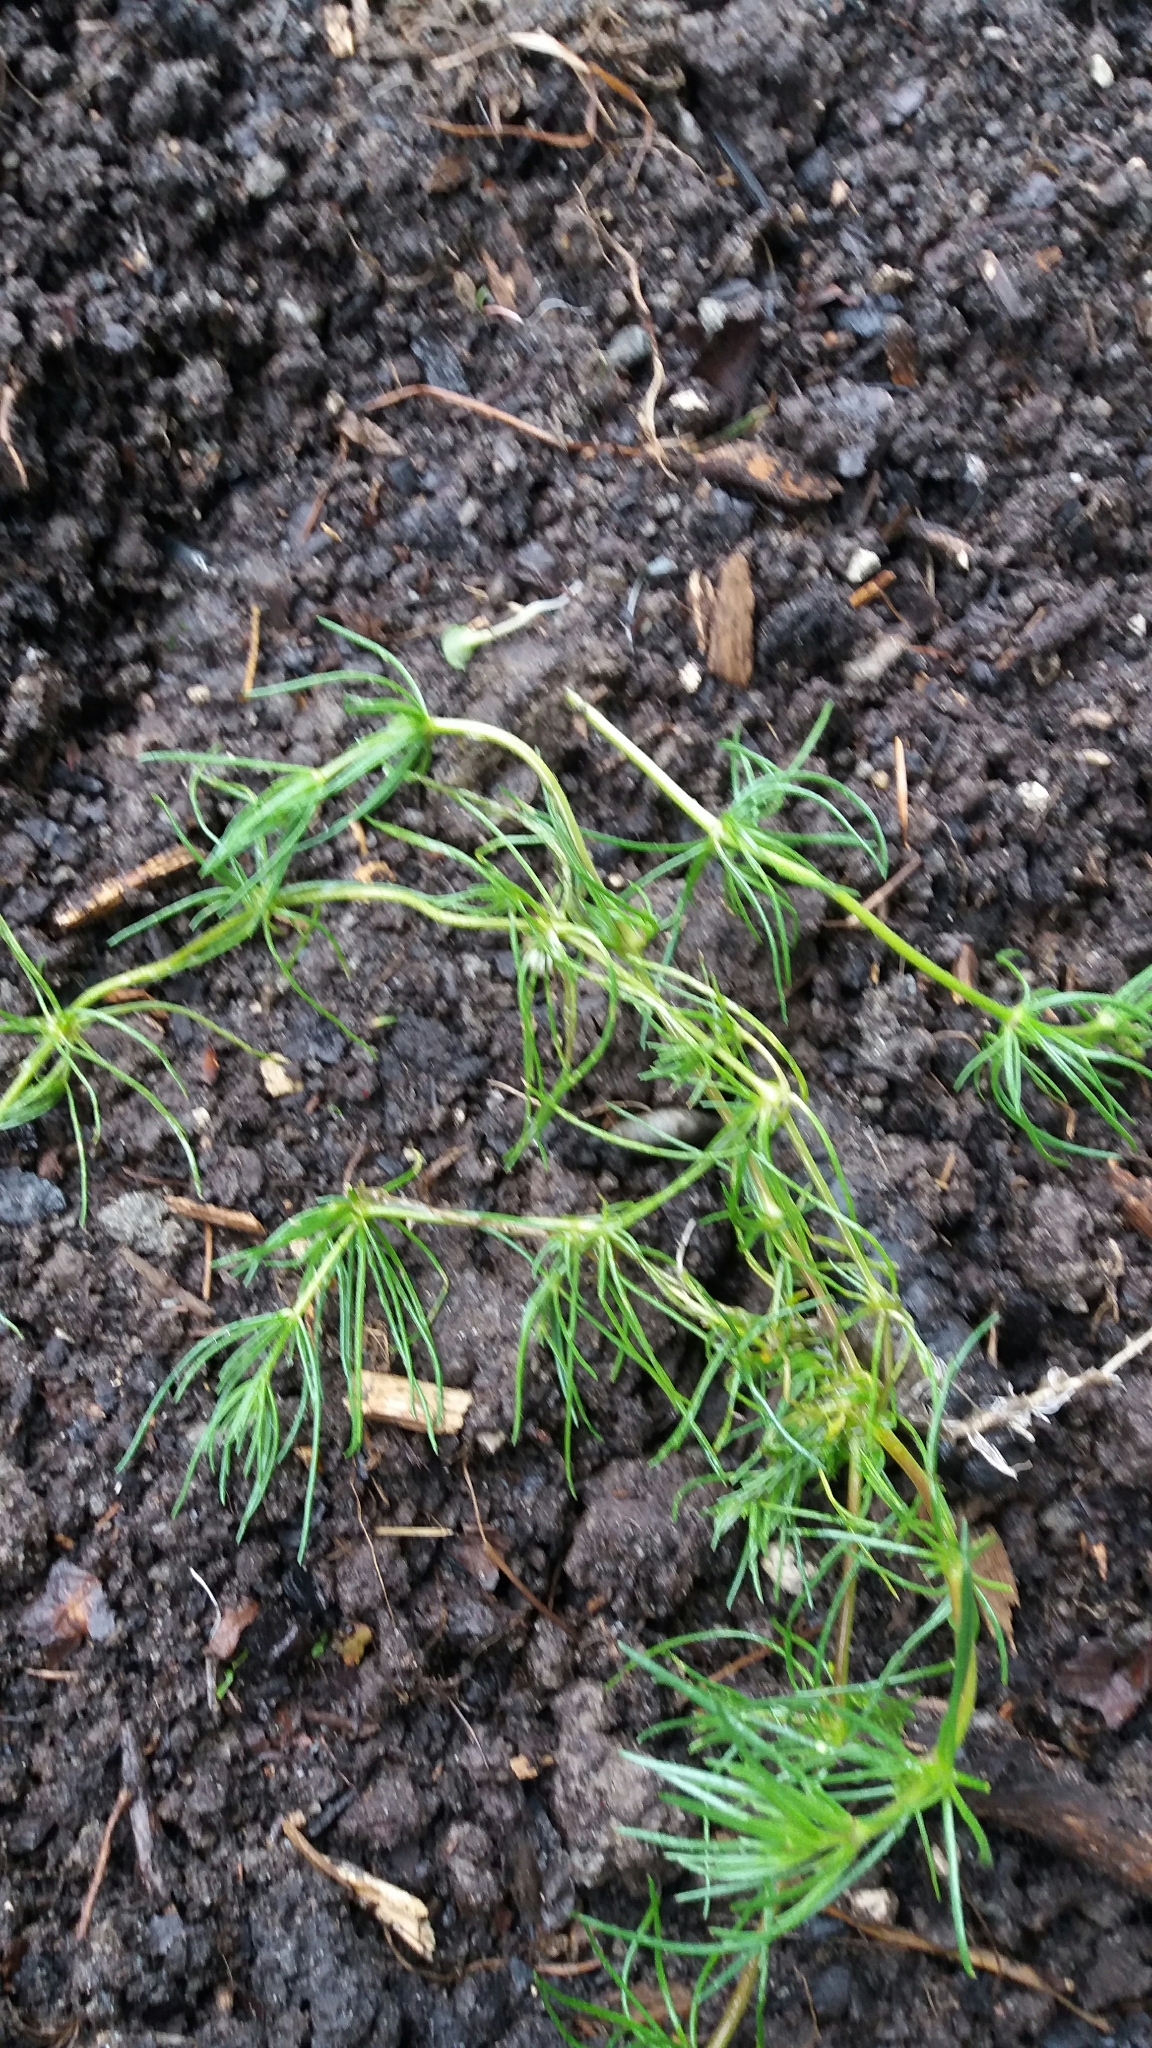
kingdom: Plantae
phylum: Tracheophyta
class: Magnoliopsida
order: Caryophyllales
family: Caryophyllaceae
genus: Spergula
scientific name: Spergula arvensis
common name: Corn spurrey
